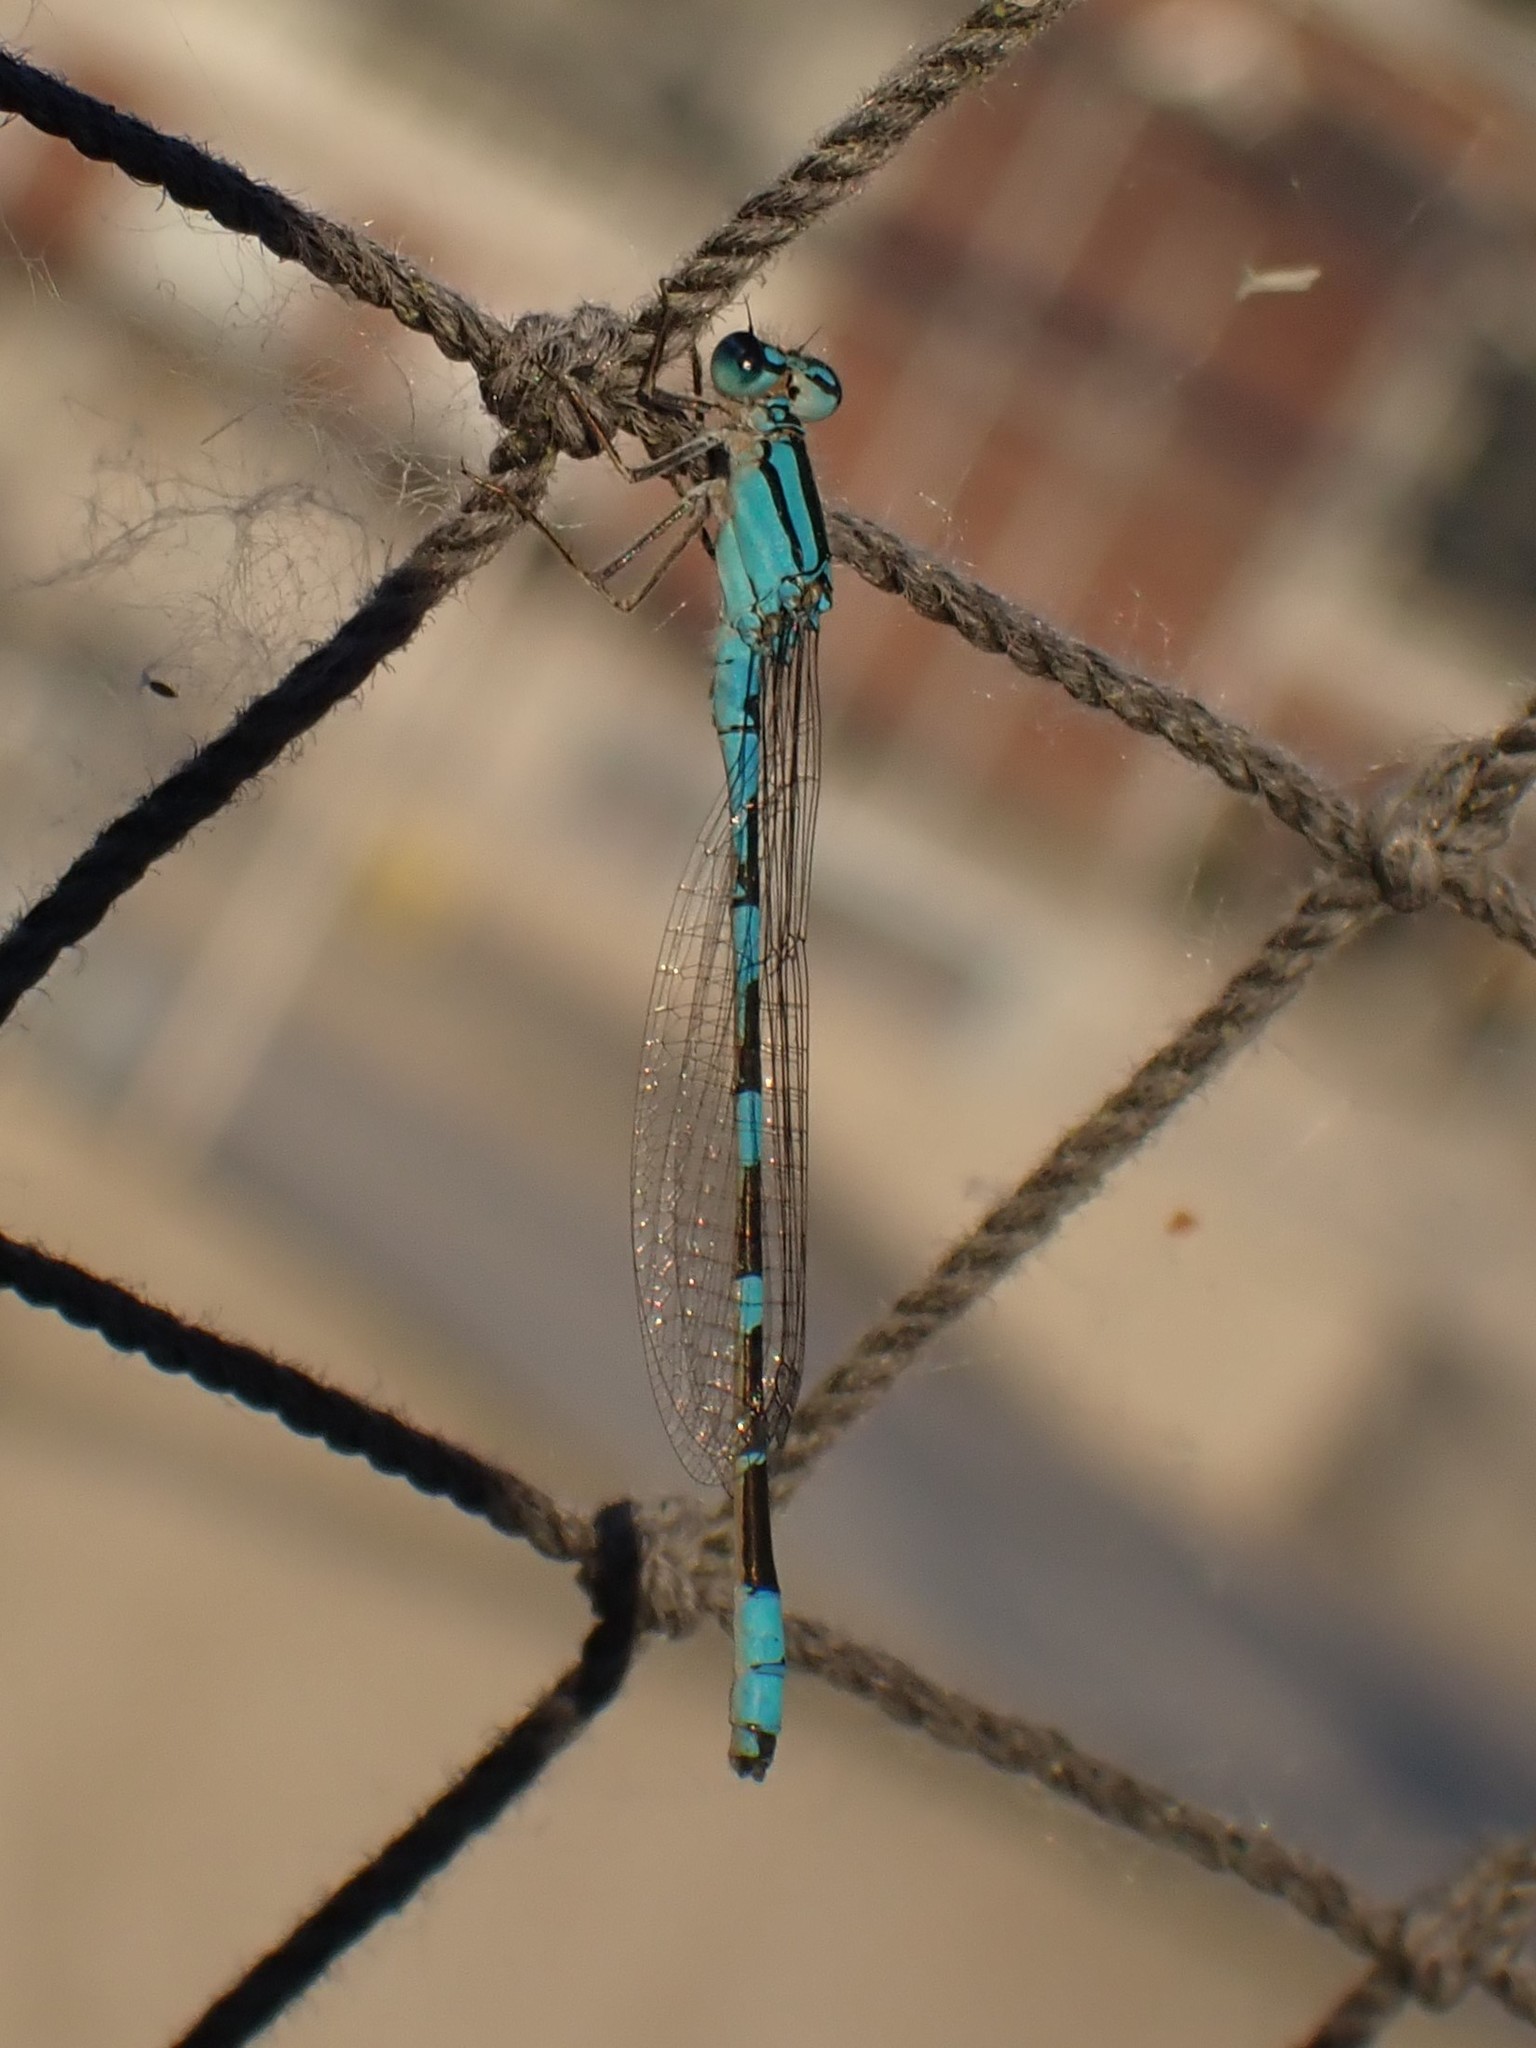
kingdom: Animalia
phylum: Arthropoda
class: Insecta
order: Odonata
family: Coenagrionidae
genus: Enallagma
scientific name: Enallagma carunculatum
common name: Tule bluet
